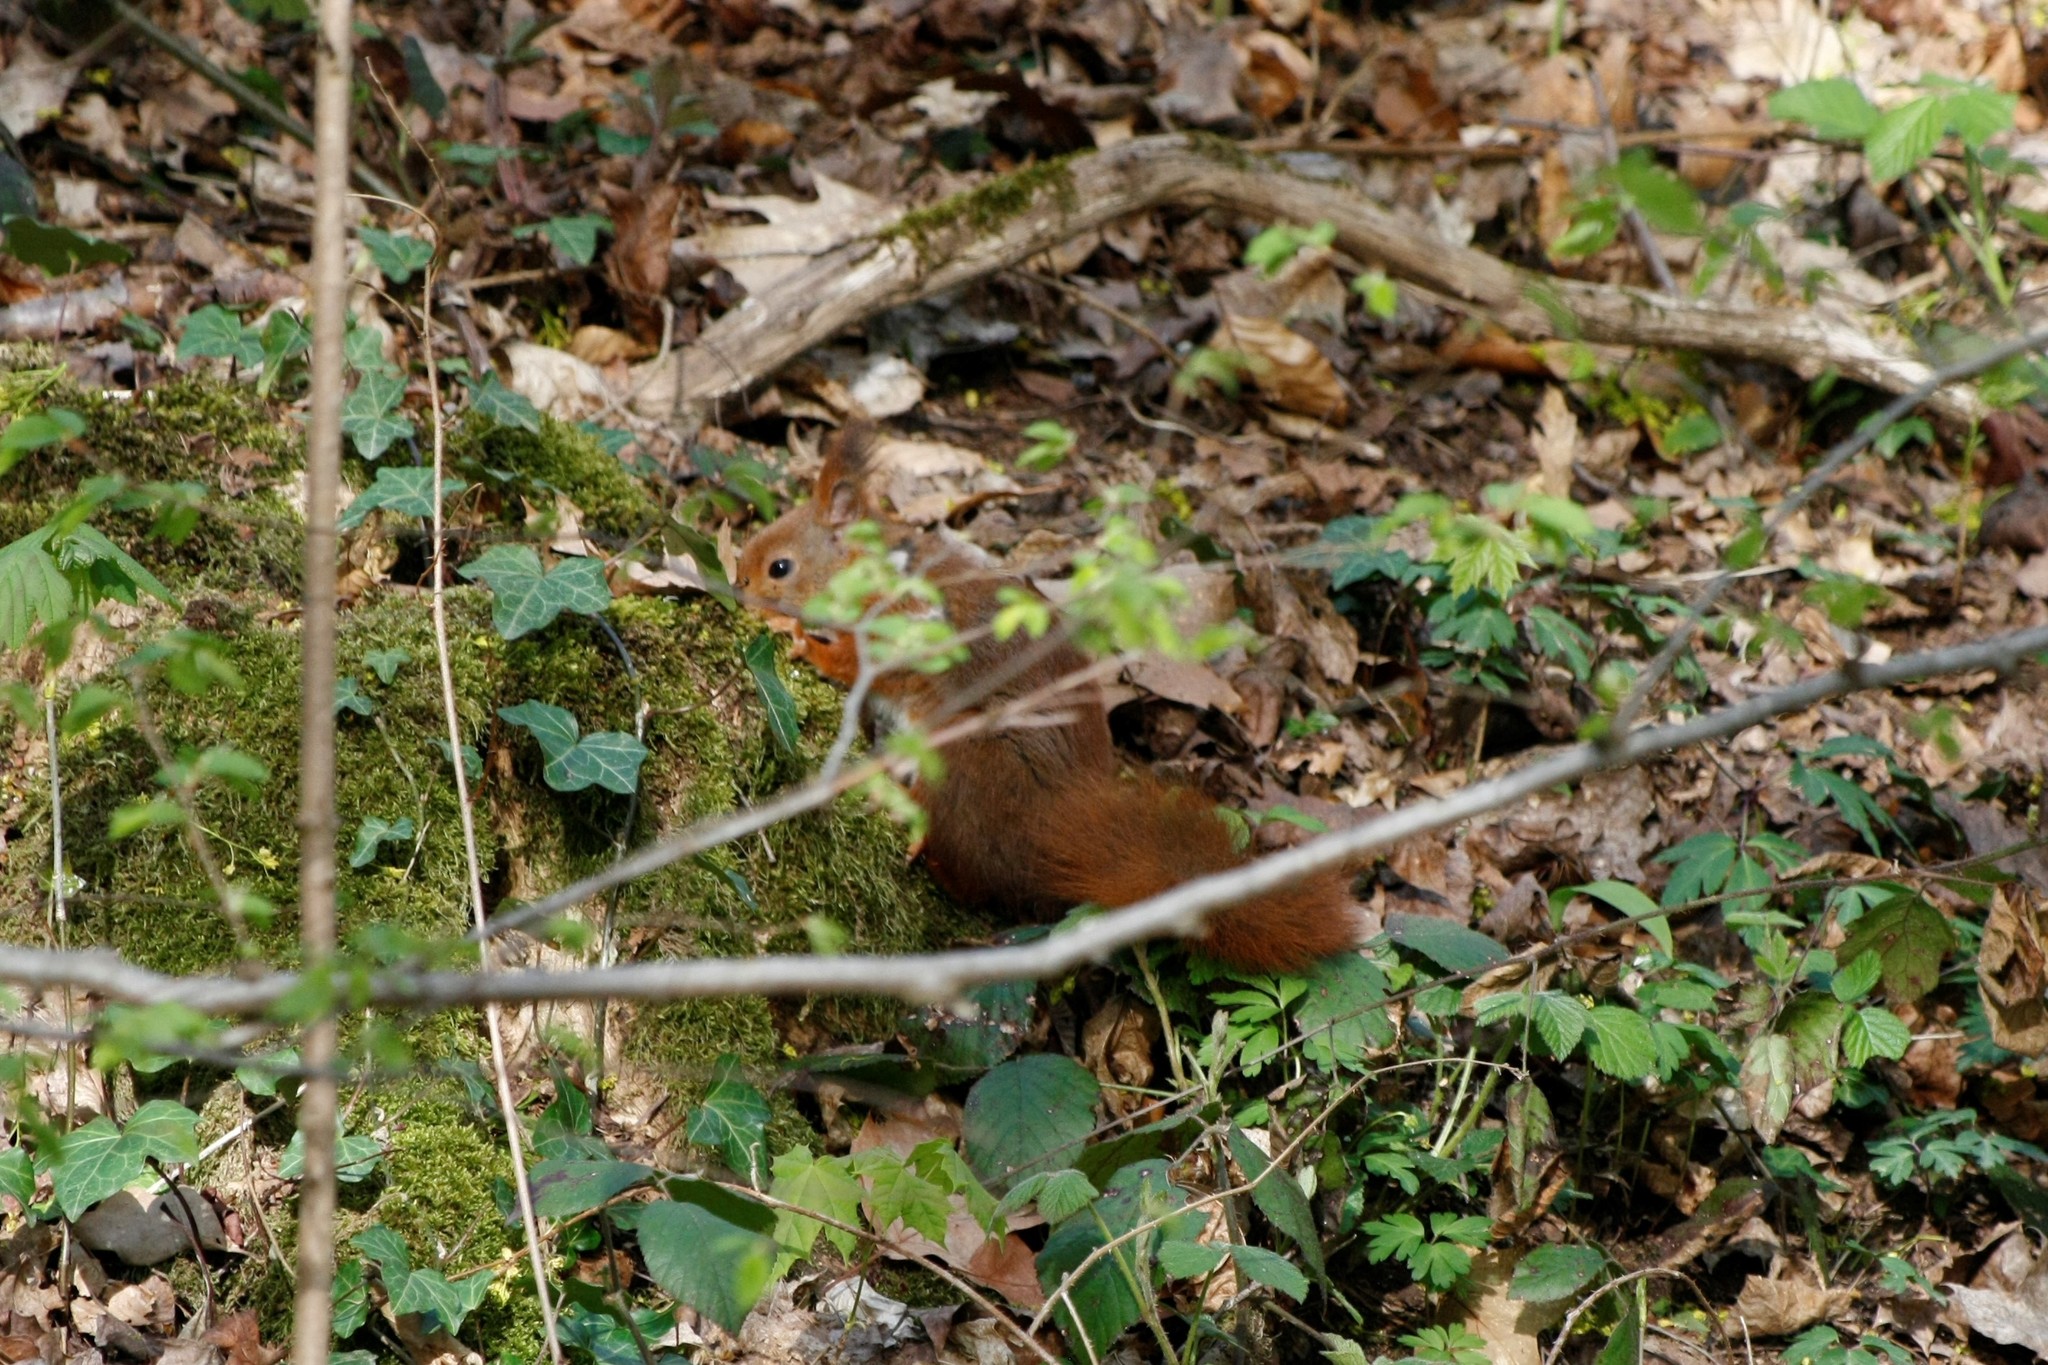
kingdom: Animalia
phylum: Chordata
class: Mammalia
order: Rodentia
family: Sciuridae
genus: Sciurus
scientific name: Sciurus vulgaris
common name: Eurasian red squirrel
